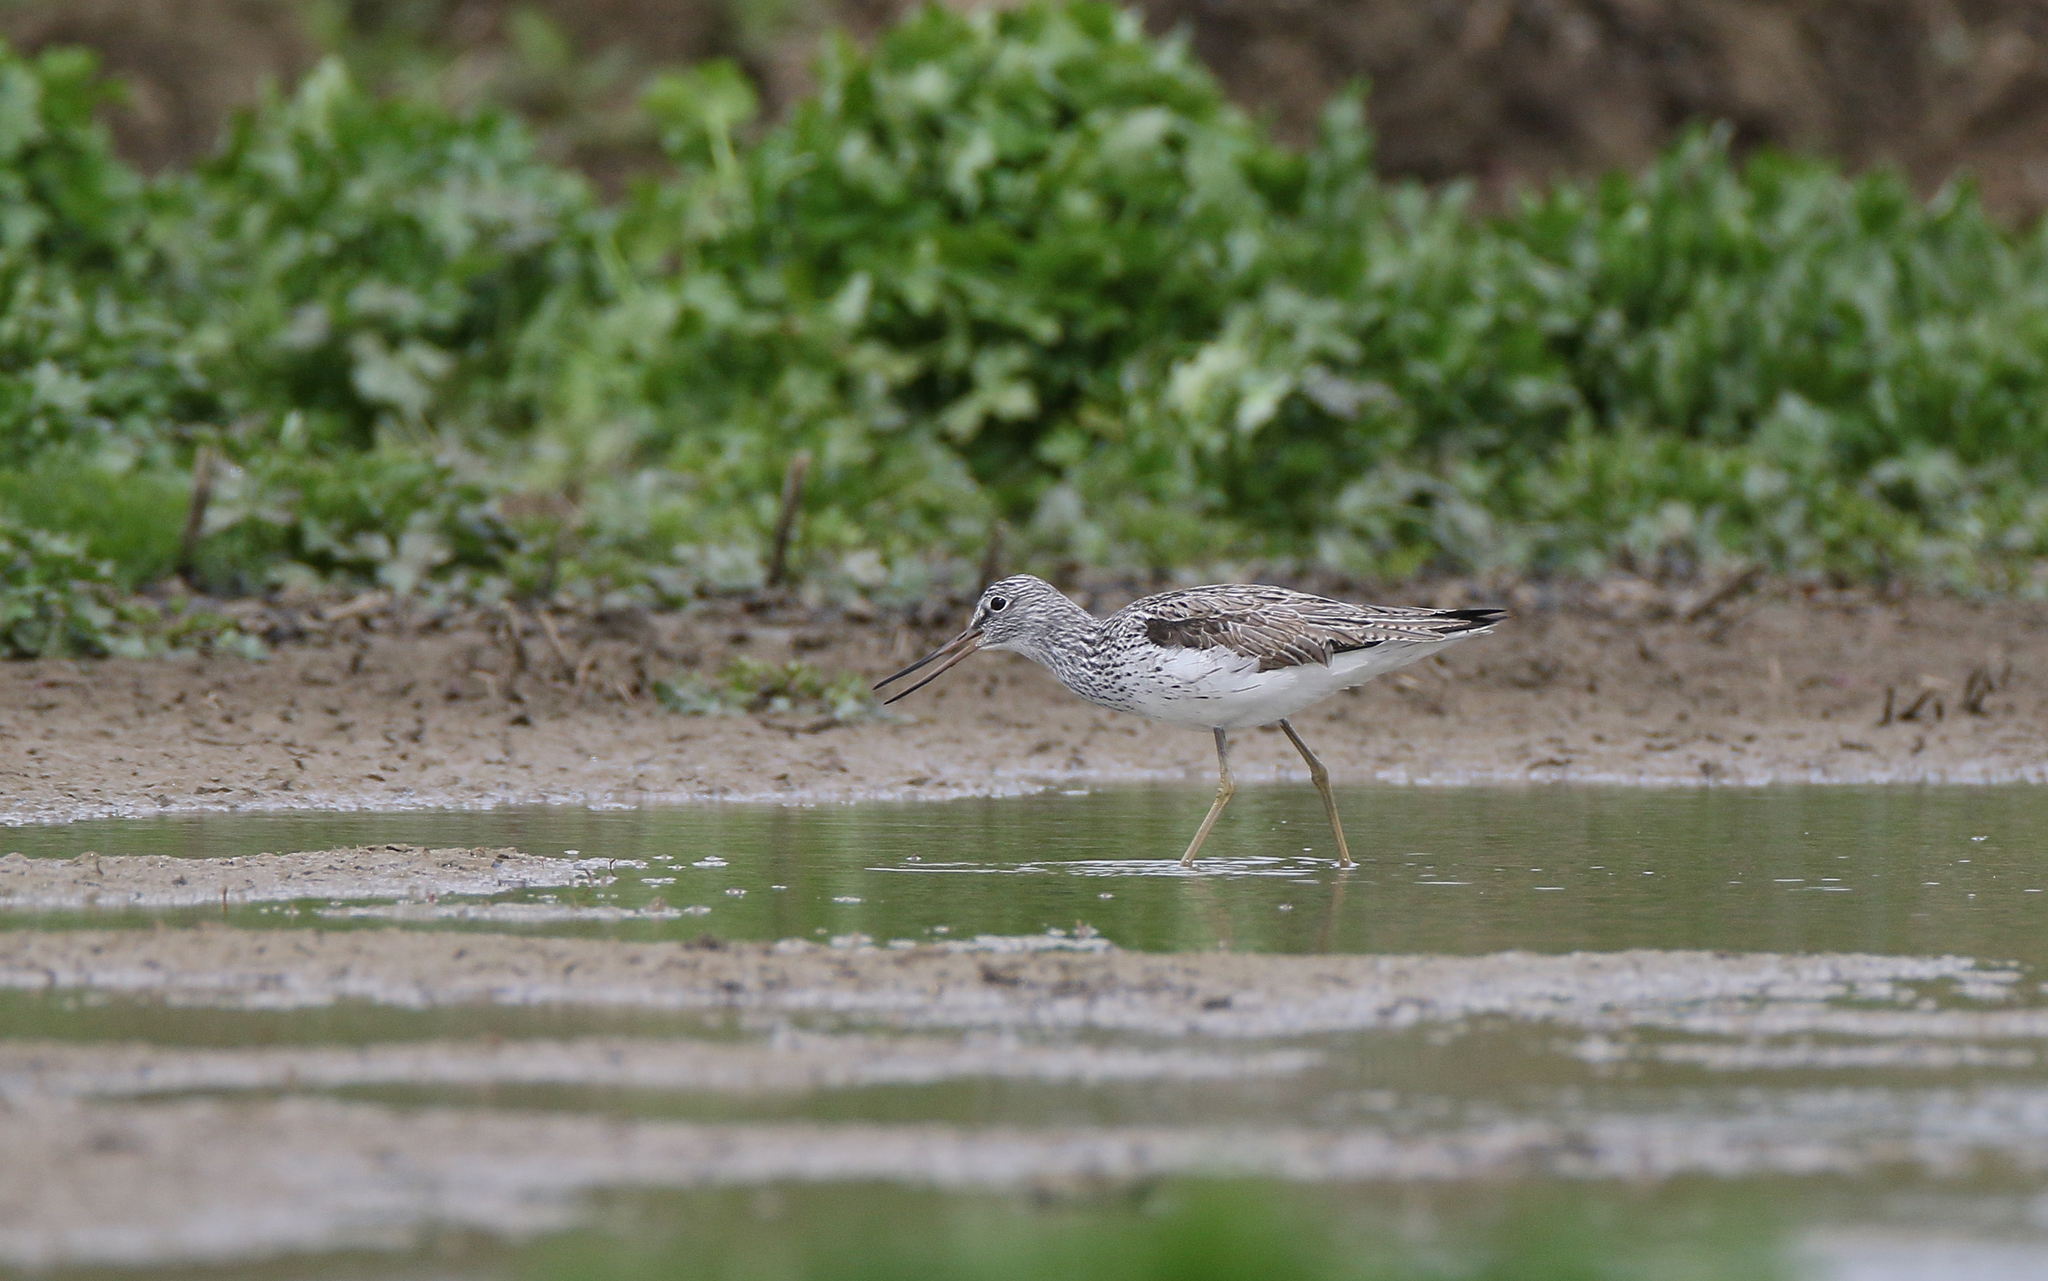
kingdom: Animalia
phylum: Chordata
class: Aves
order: Charadriiformes
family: Scolopacidae
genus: Tringa
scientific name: Tringa nebularia
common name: Common greenshank
